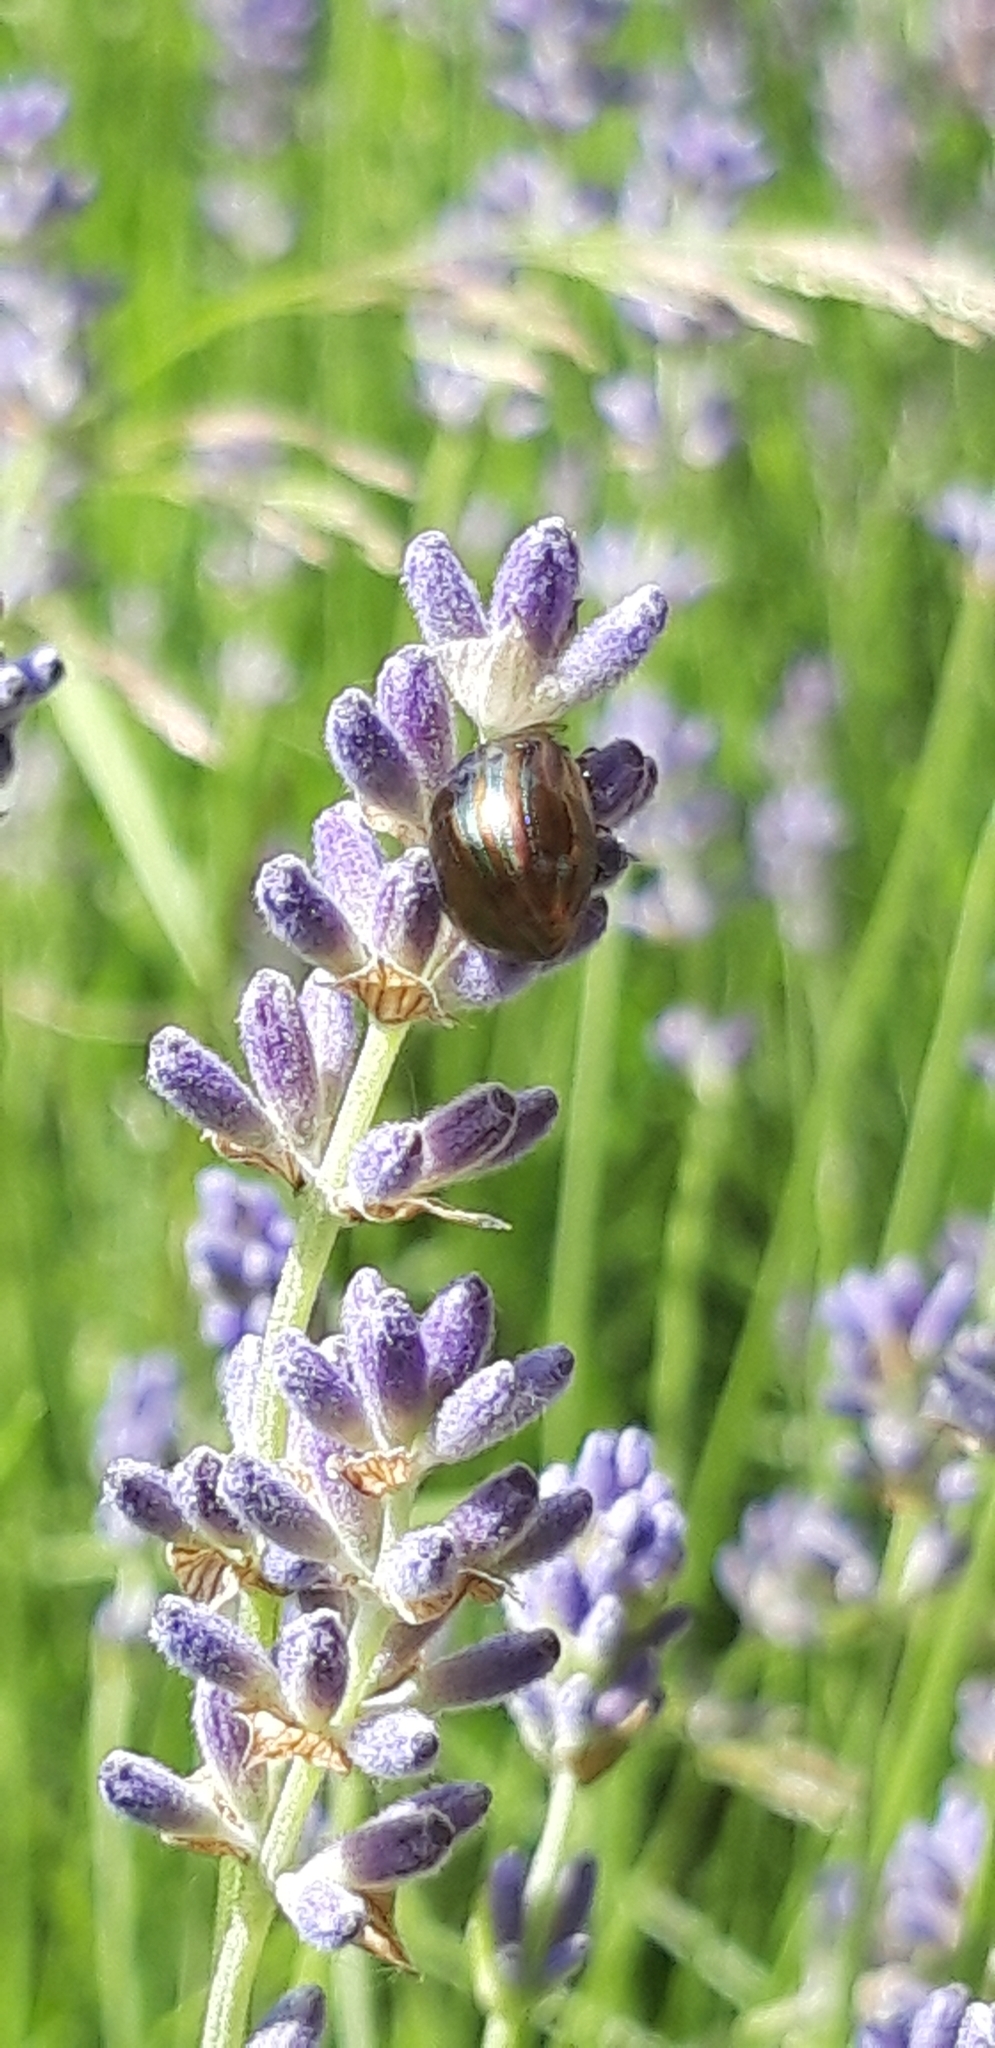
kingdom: Animalia
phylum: Arthropoda
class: Insecta
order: Coleoptera
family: Chrysomelidae
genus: Chrysolina
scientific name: Chrysolina americana
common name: Rosemary beetle
